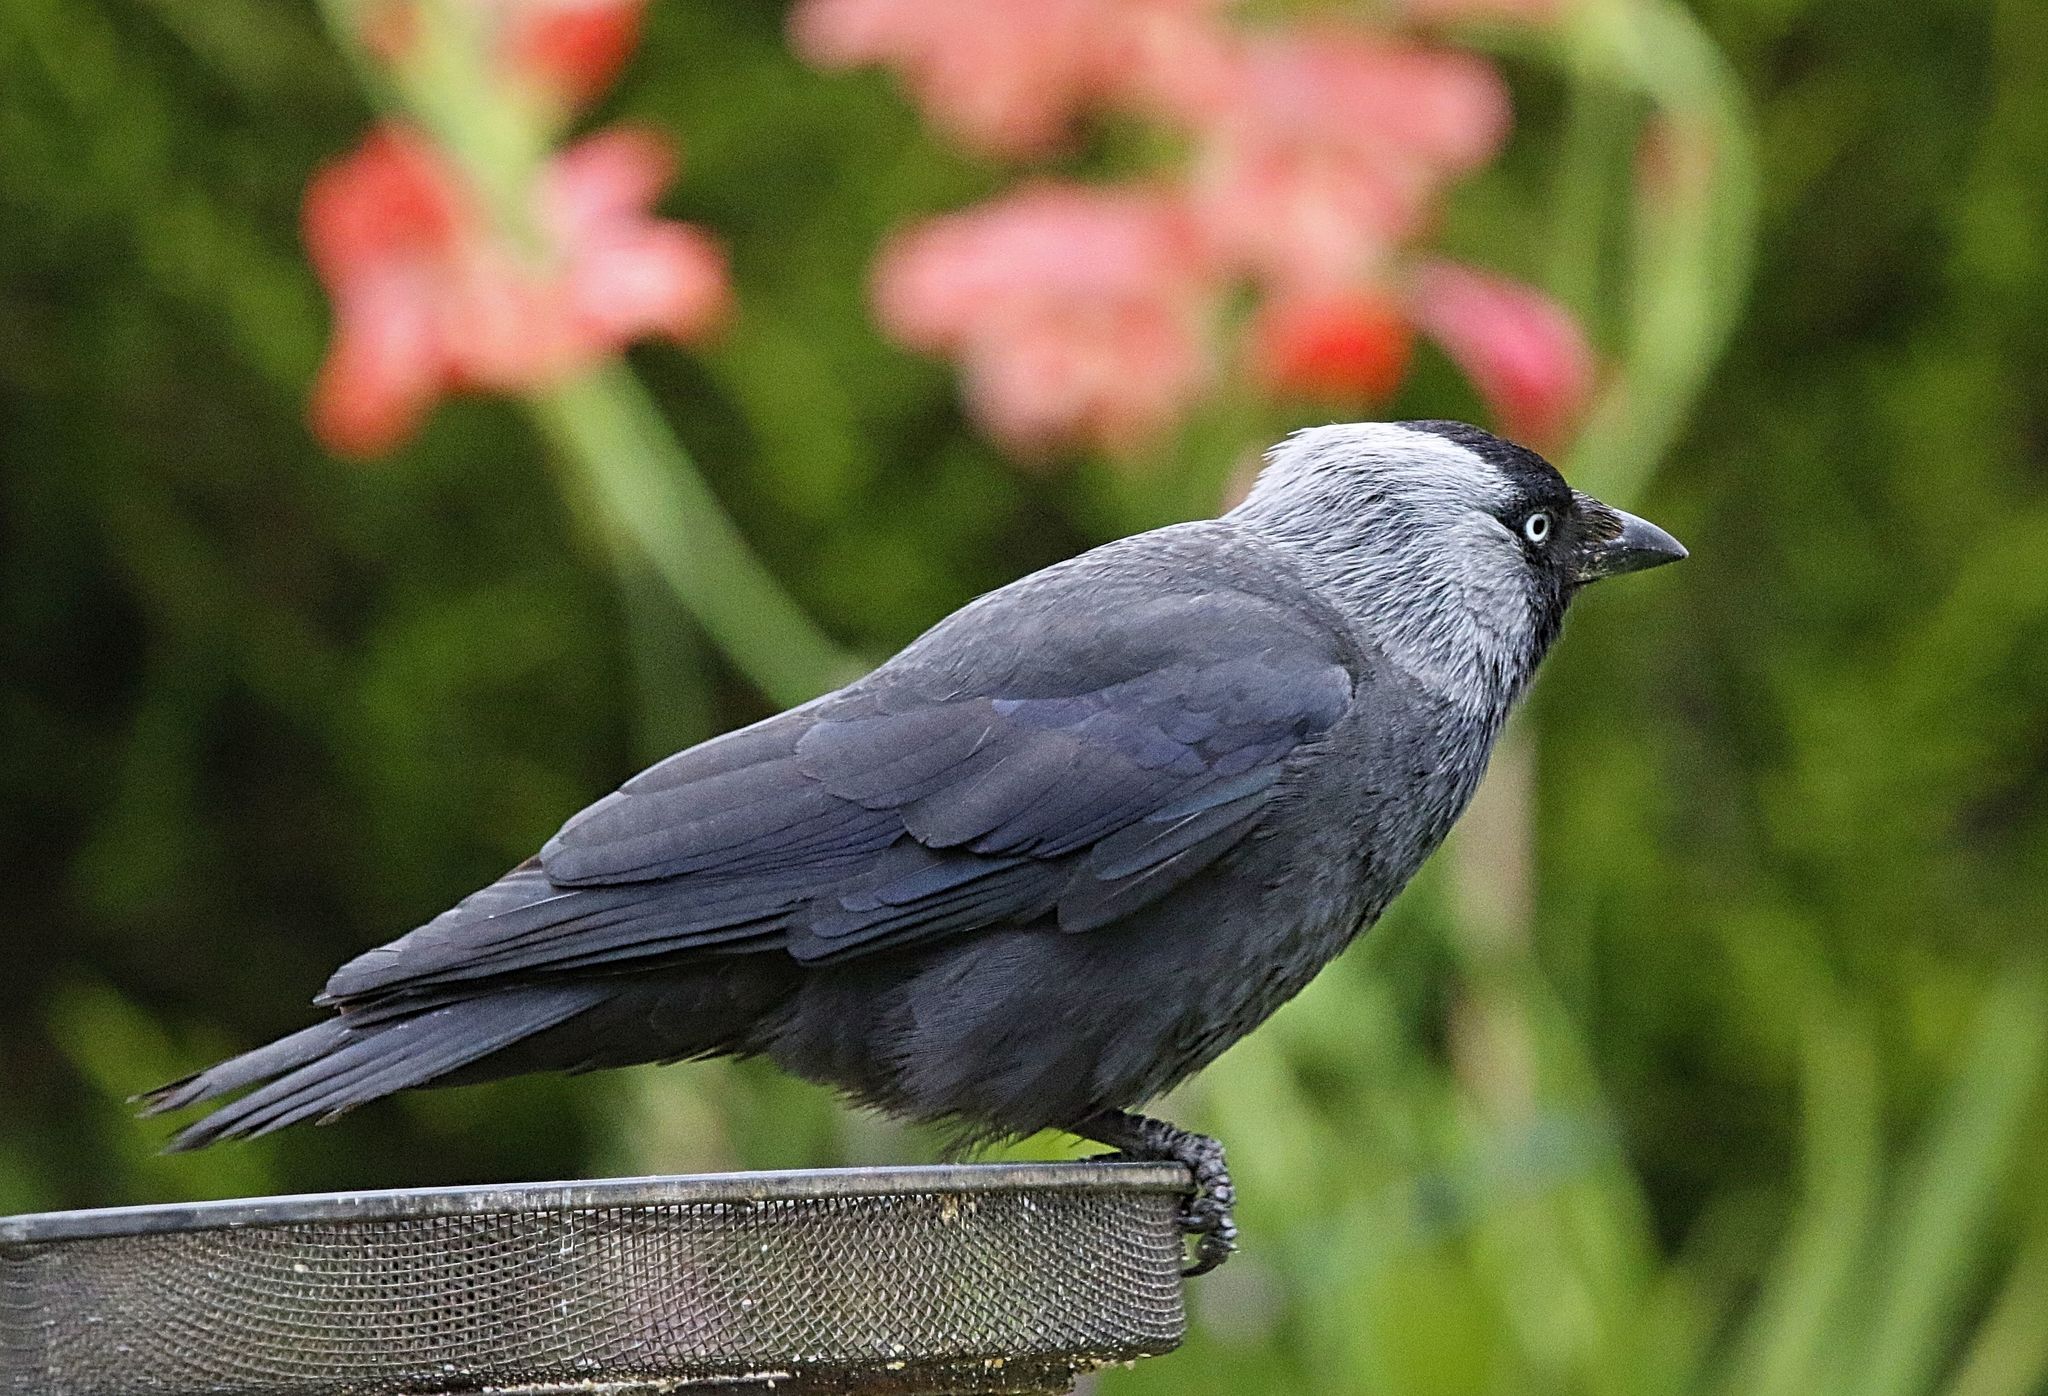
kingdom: Animalia
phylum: Chordata
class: Aves
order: Passeriformes
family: Corvidae
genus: Coloeus
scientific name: Coloeus monedula
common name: Western jackdaw
